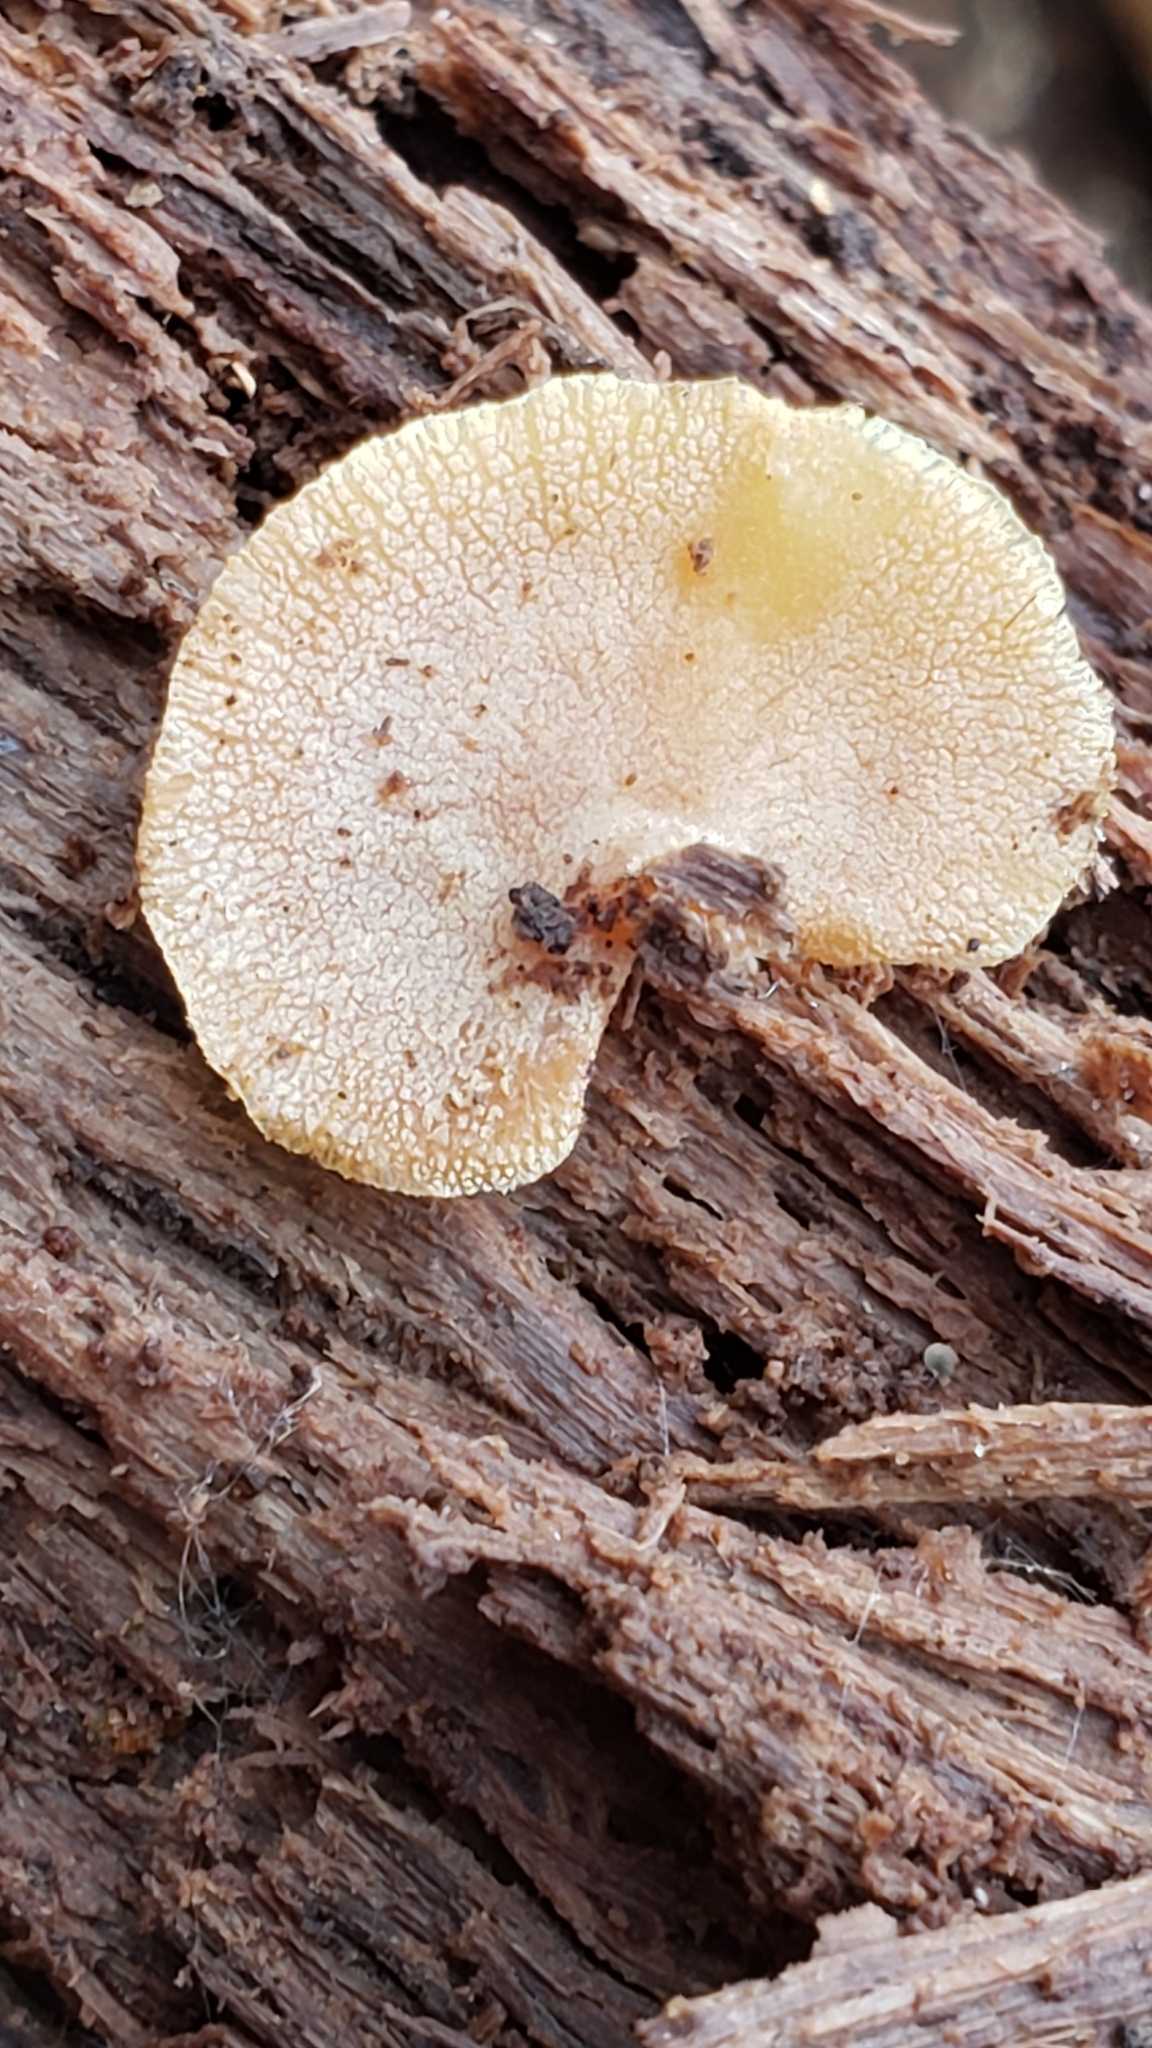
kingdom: Fungi
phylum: Basidiomycota
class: Agaricomycetes
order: Agaricales
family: Mycenaceae
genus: Panellus
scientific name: Panellus stipticus
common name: Bitter oysterling
